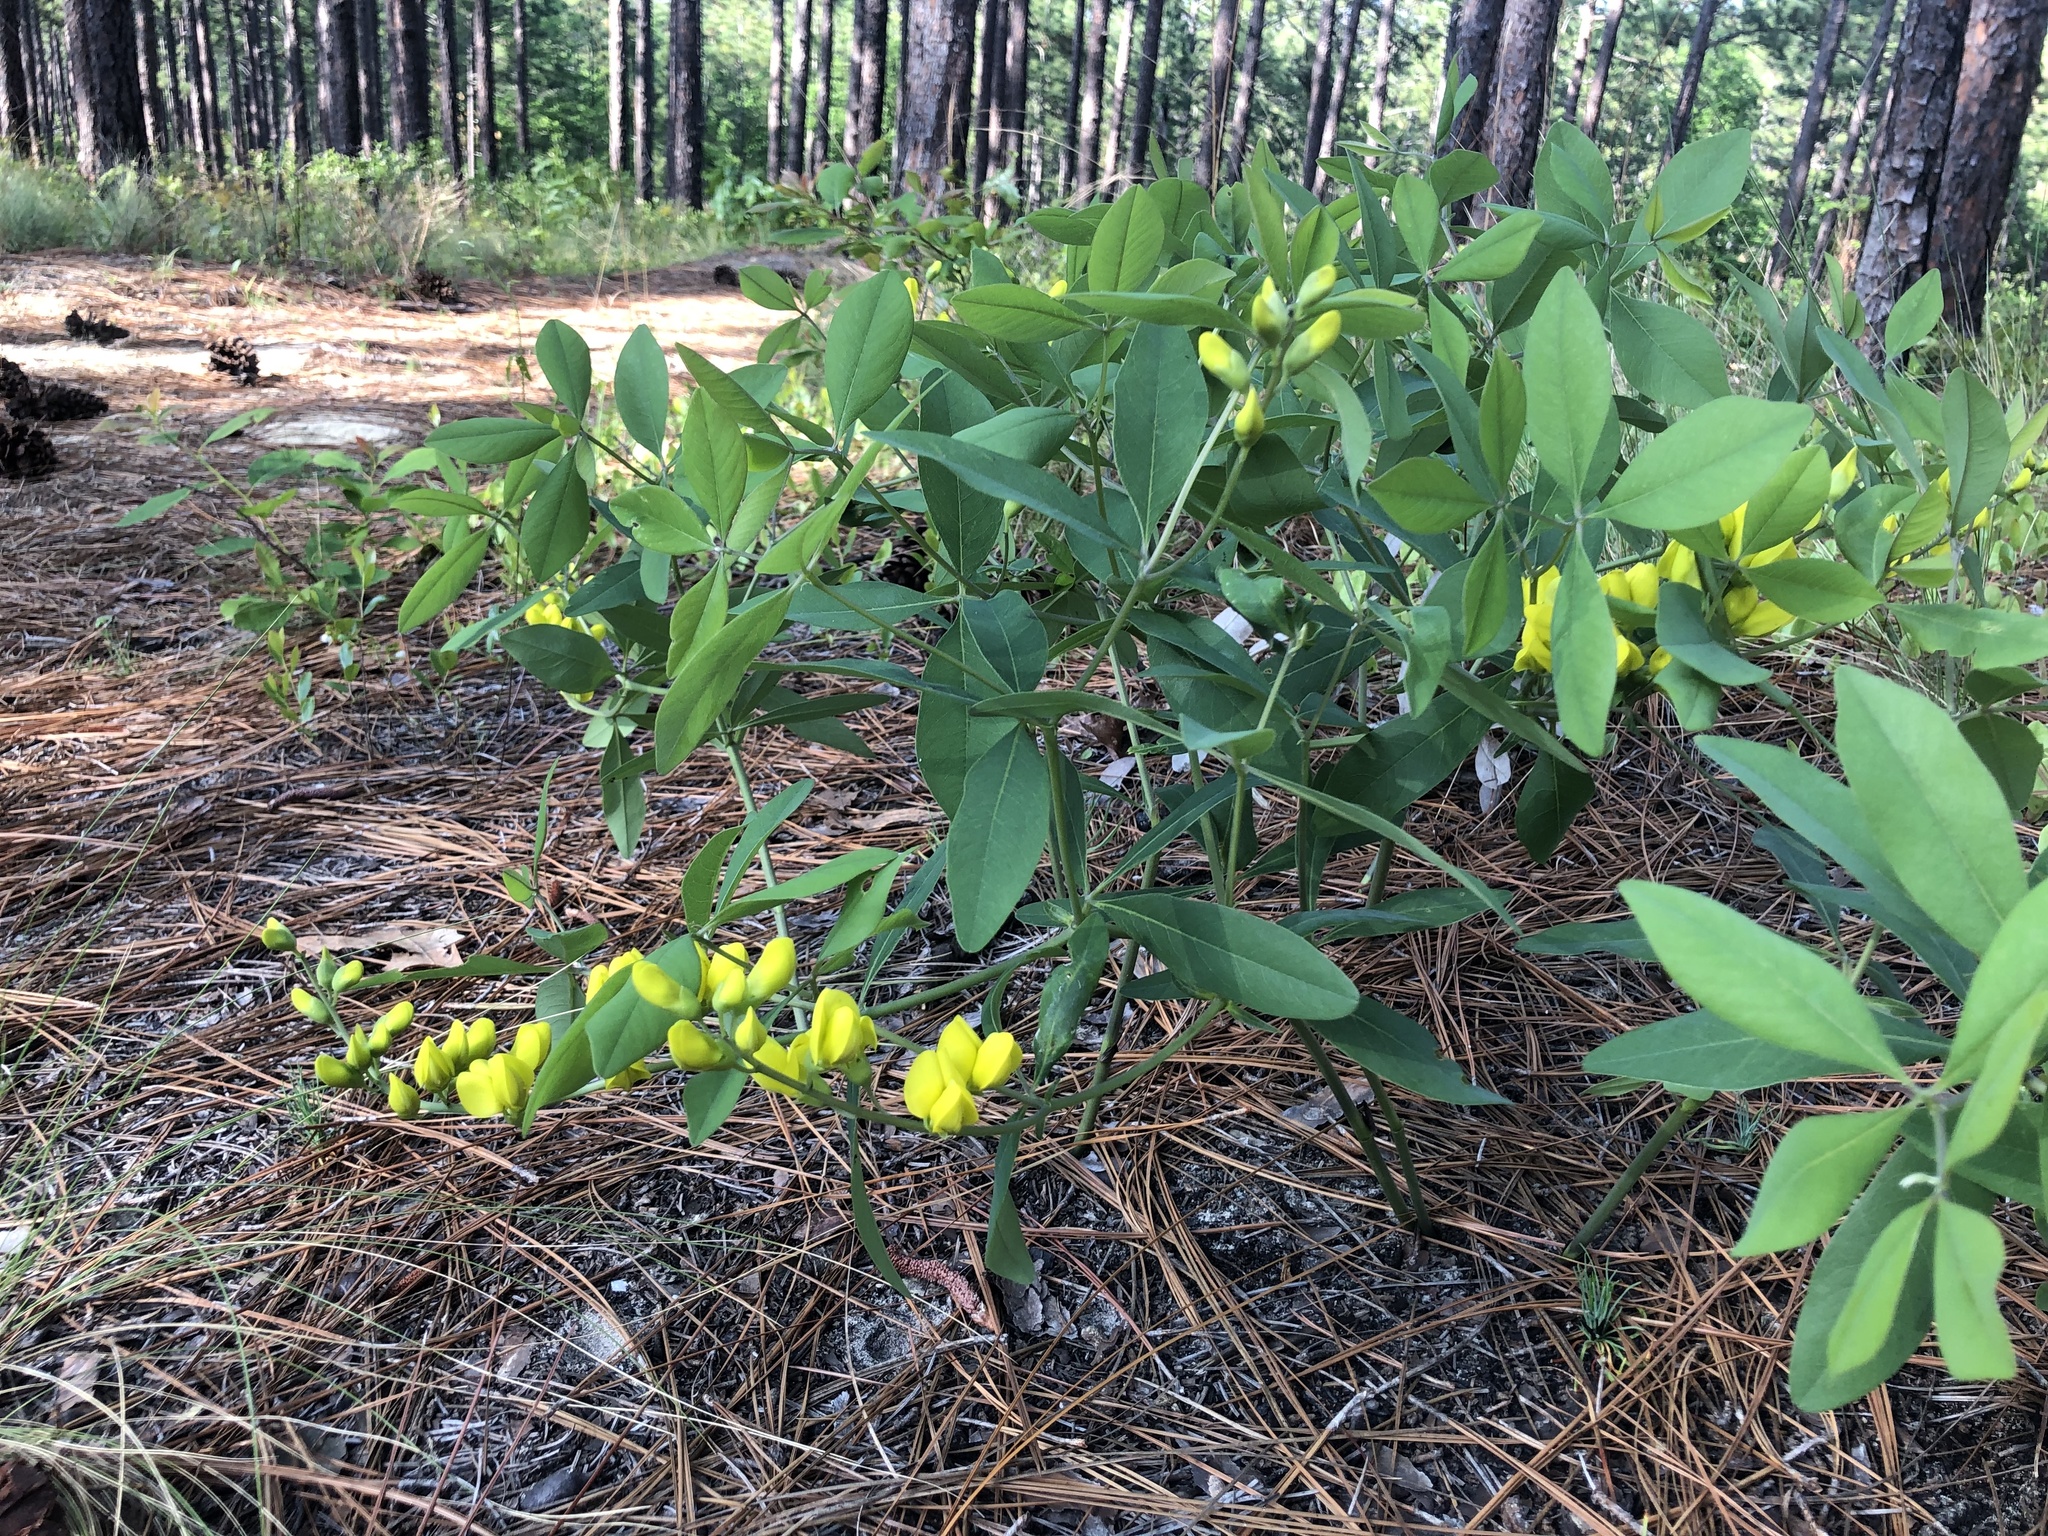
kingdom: Plantae
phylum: Tracheophyta
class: Magnoliopsida
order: Fabales
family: Fabaceae
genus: Baptisia
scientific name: Baptisia cinerea
